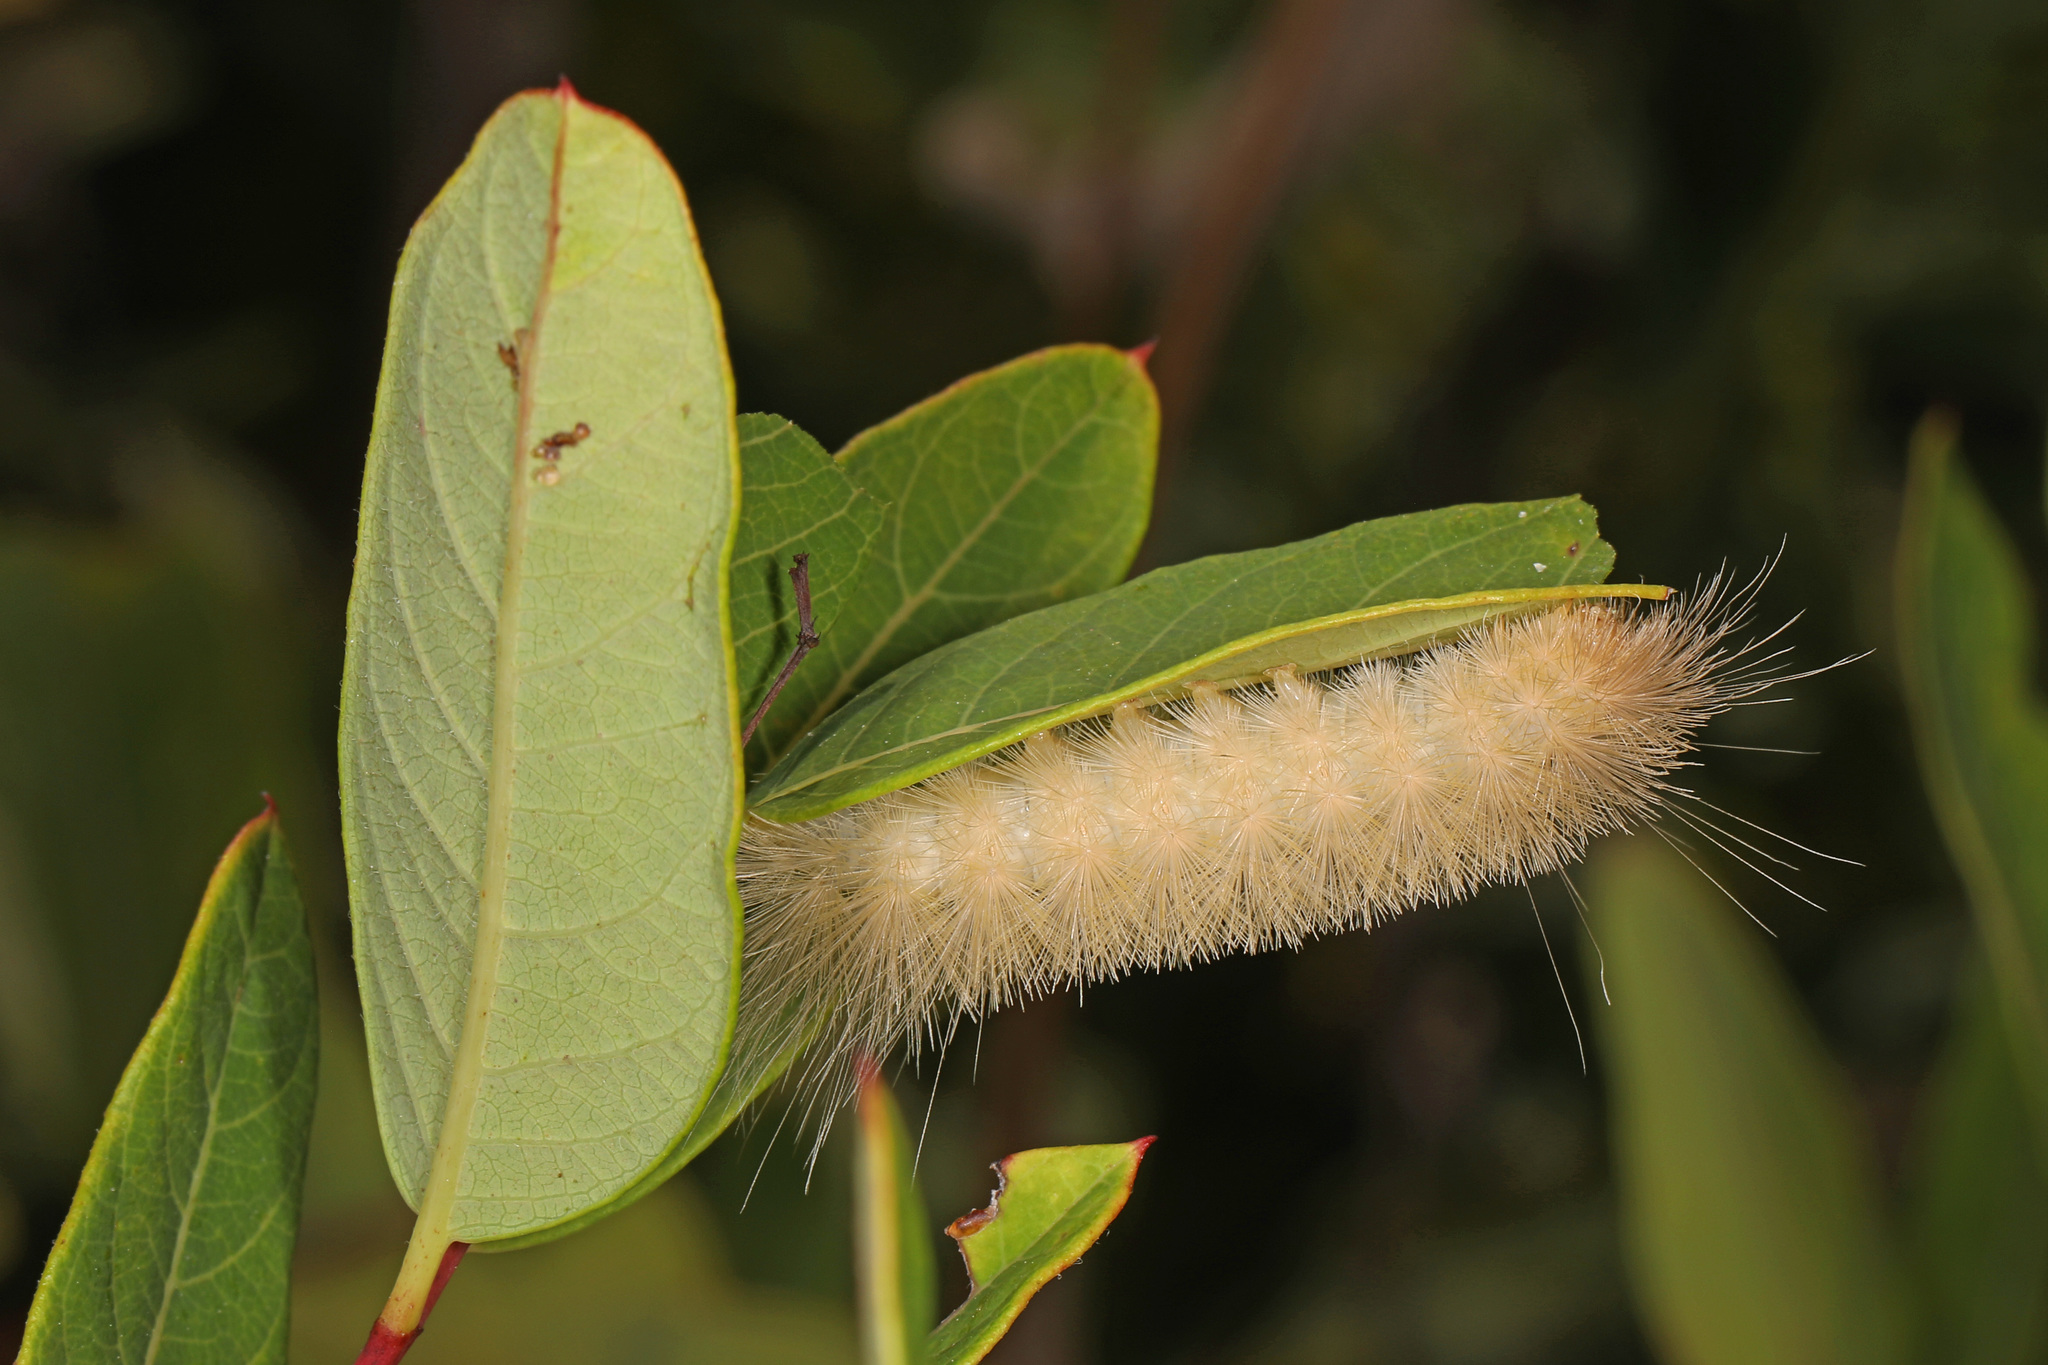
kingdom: Animalia
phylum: Arthropoda
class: Insecta
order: Lepidoptera
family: Erebidae
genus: Cycnia
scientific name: Cycnia tenera
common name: Delicate cycnia moth
